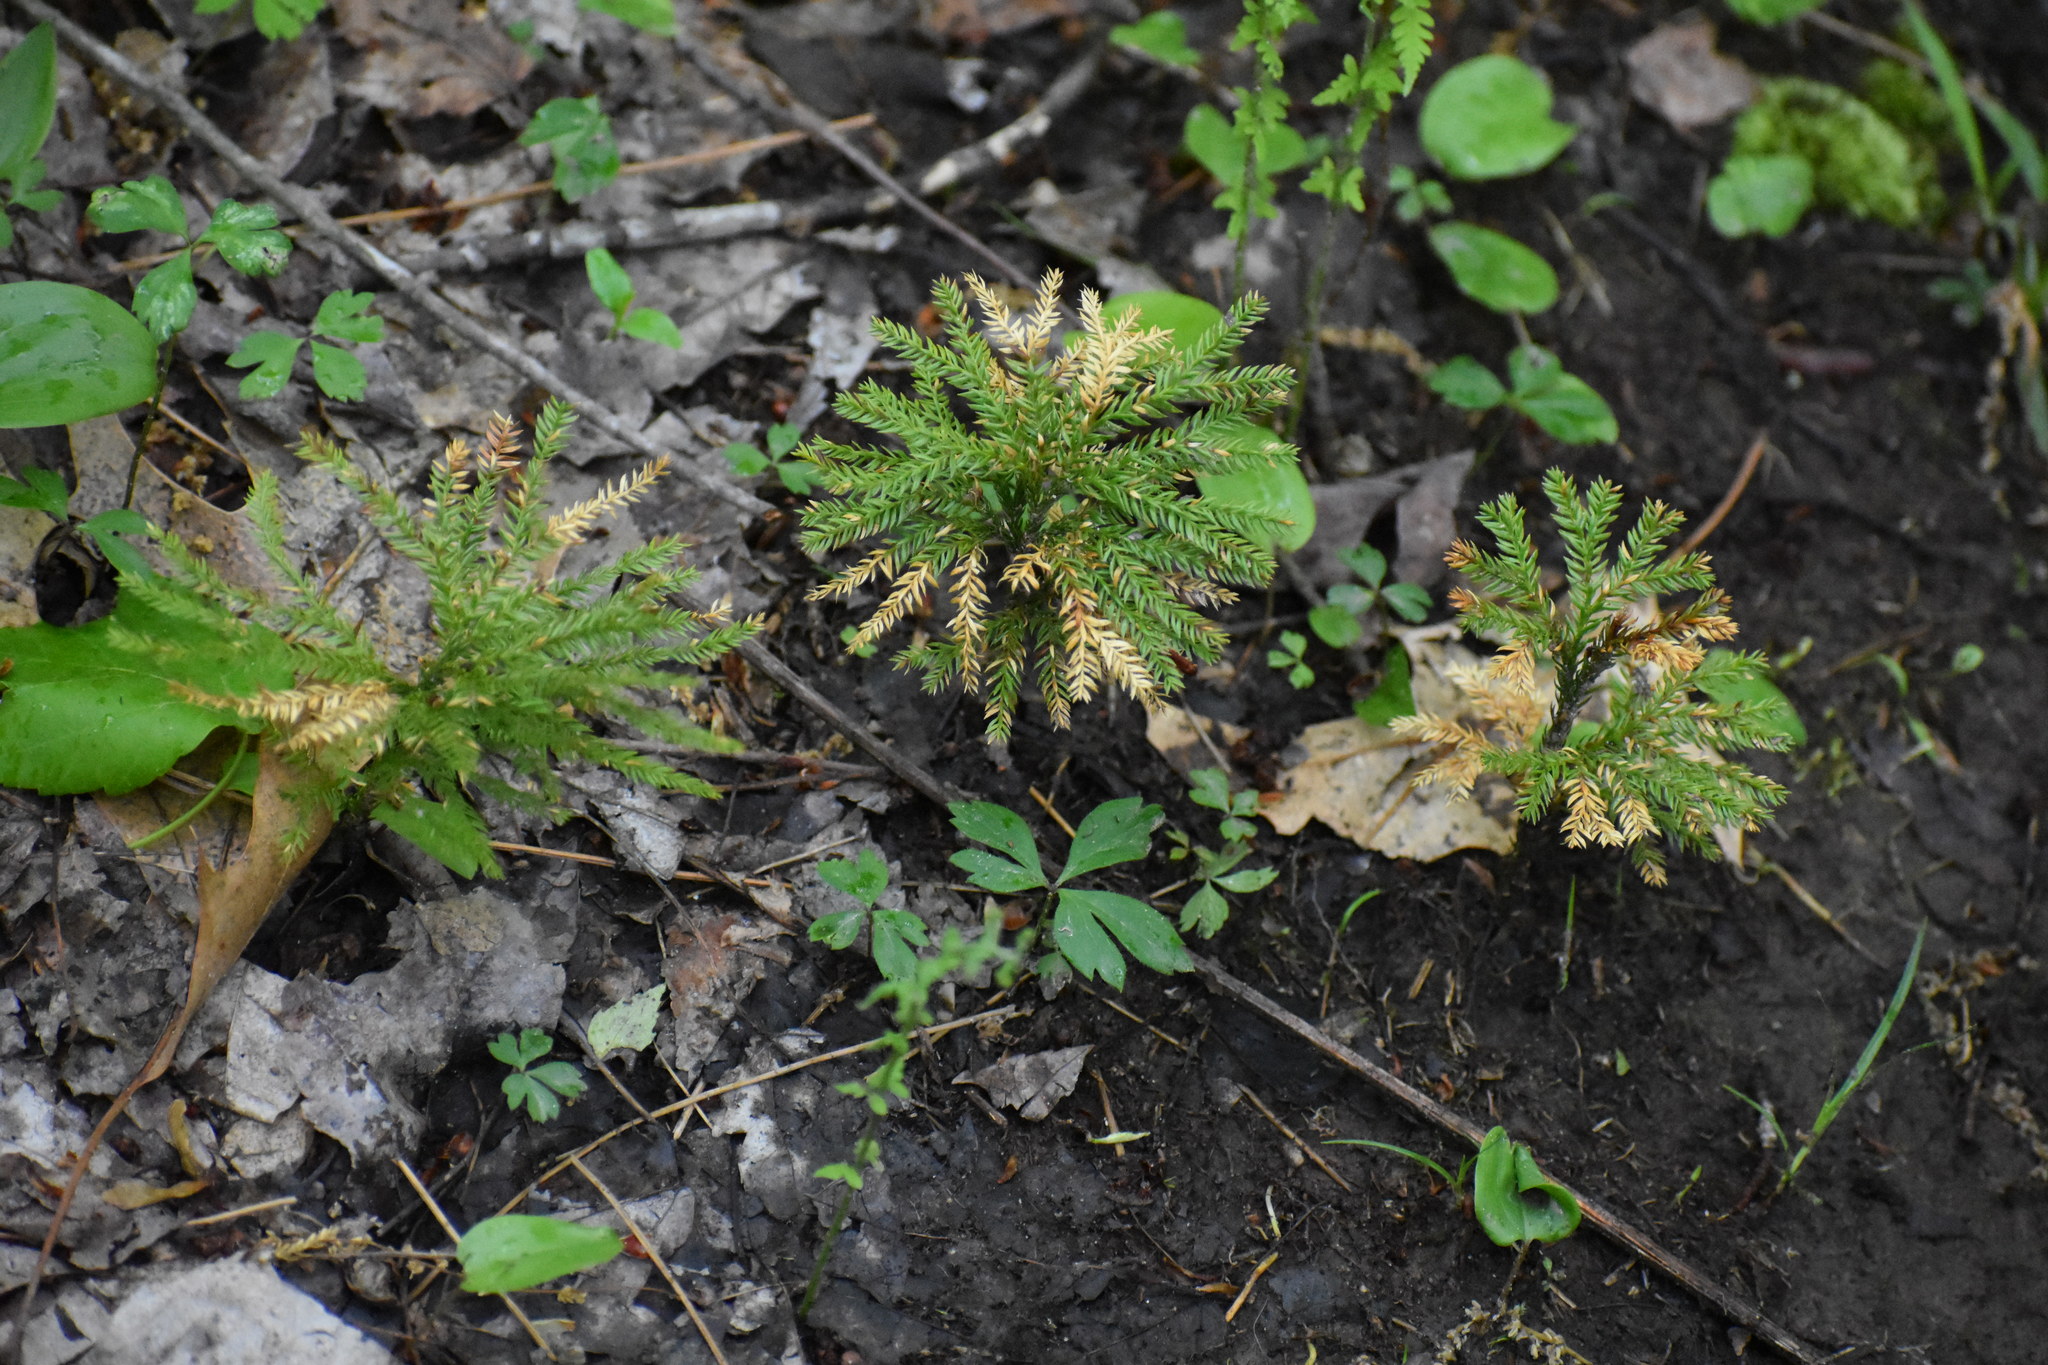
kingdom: Plantae
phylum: Tracheophyta
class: Lycopodiopsida
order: Lycopodiales
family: Lycopodiaceae
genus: Dendrolycopodium
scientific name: Dendrolycopodium obscurum
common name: Common ground-pine
